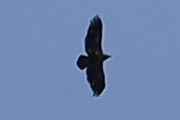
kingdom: Animalia
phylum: Chordata
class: Aves
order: Accipitriformes
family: Accipitridae
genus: Haliaeetus
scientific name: Haliaeetus leucocephalus
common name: Bald eagle
